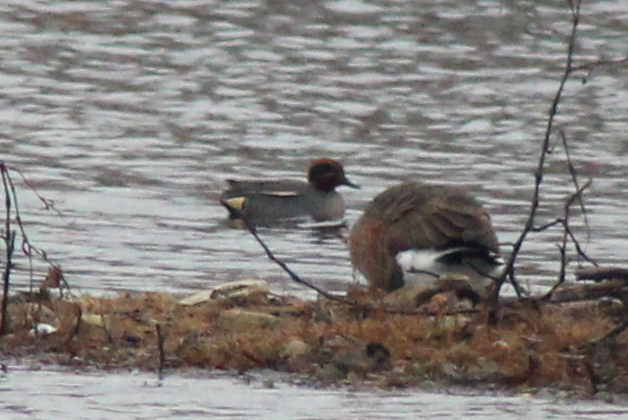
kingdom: Animalia
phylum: Chordata
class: Aves
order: Anseriformes
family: Anatidae
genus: Anas
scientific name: Anas crecca
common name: Eurasian teal
